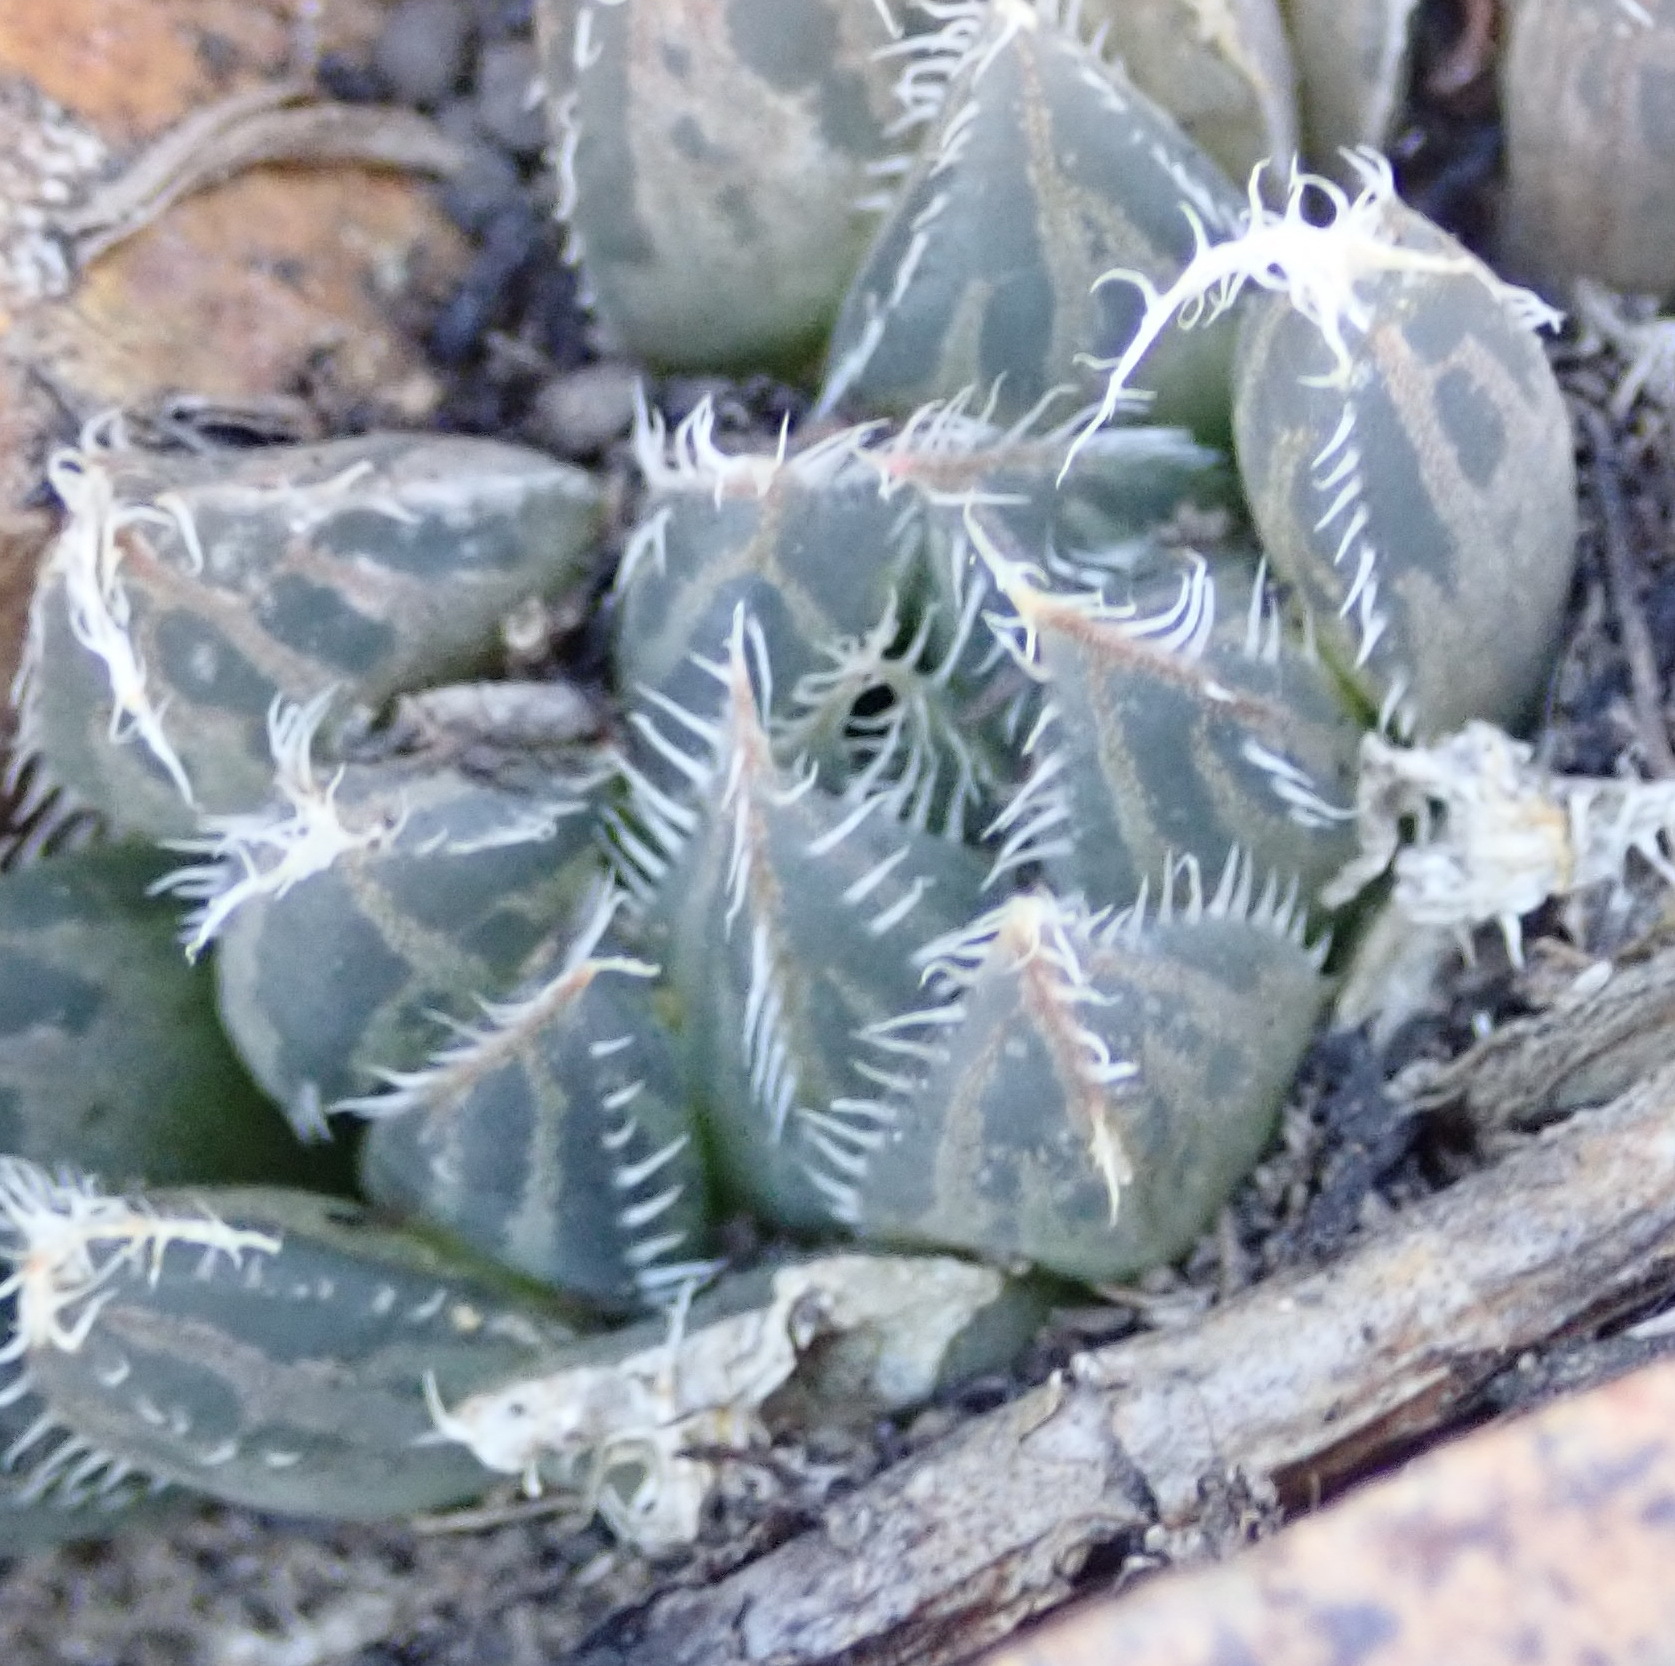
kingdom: Plantae
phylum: Tracheophyta
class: Liliopsida
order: Asparagales
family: Asphodelaceae
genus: Haworthia
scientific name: Haworthia cooperi
